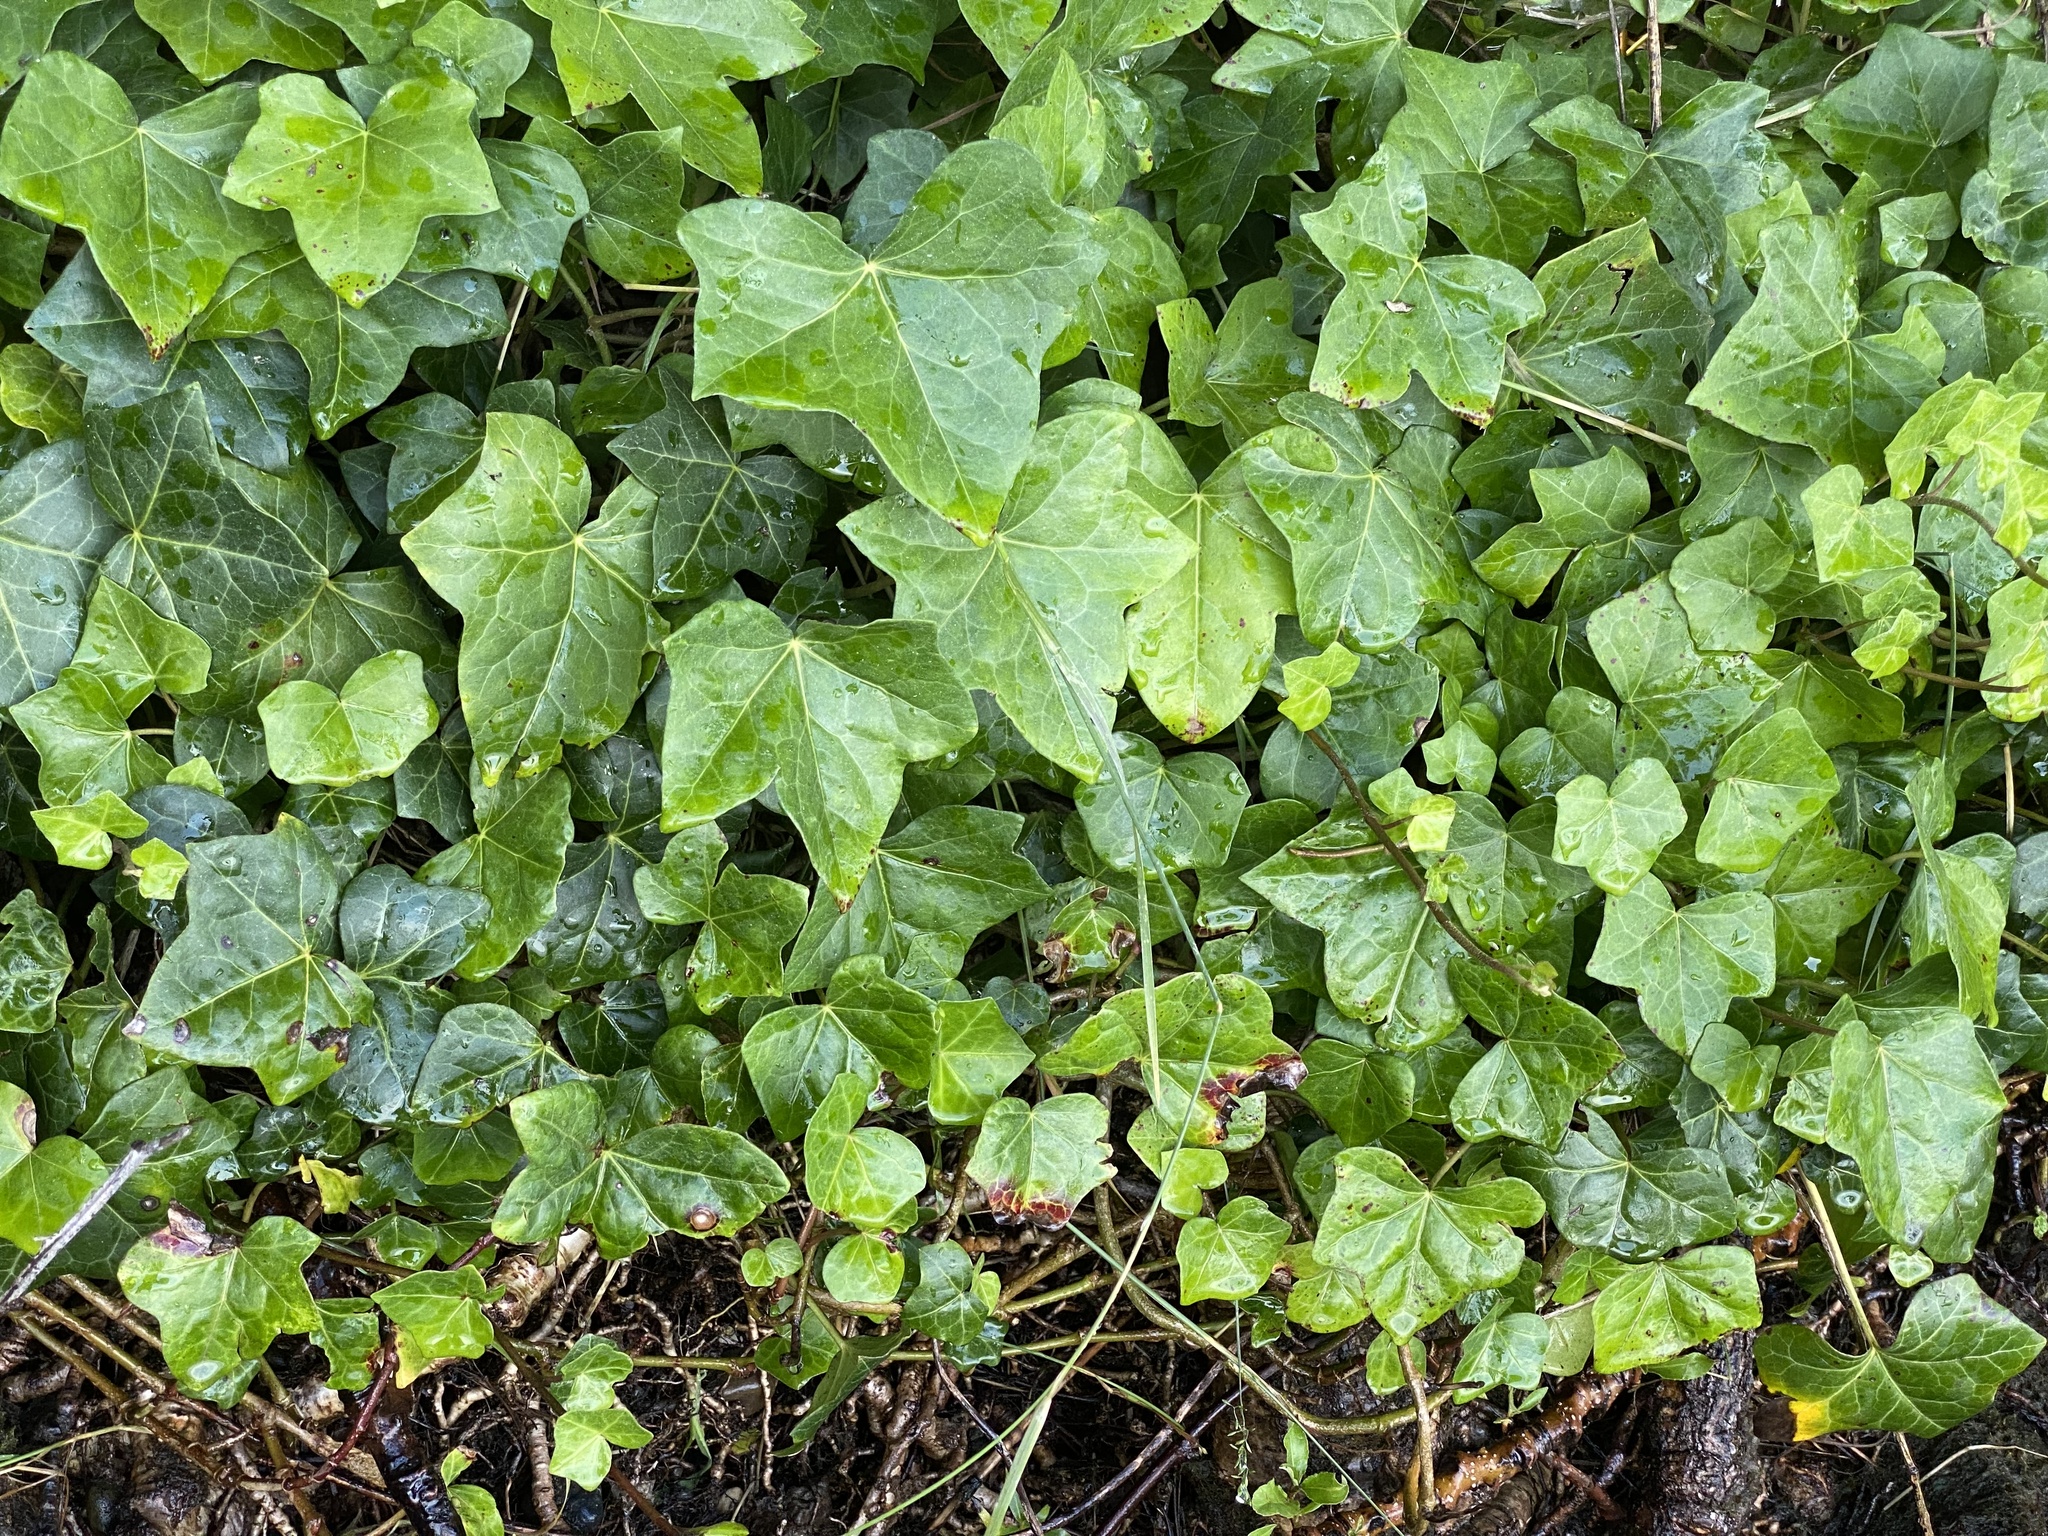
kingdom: Plantae
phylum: Tracheophyta
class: Magnoliopsida
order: Apiales
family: Araliaceae
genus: Hedera
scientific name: Hedera helix
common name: Ivy
